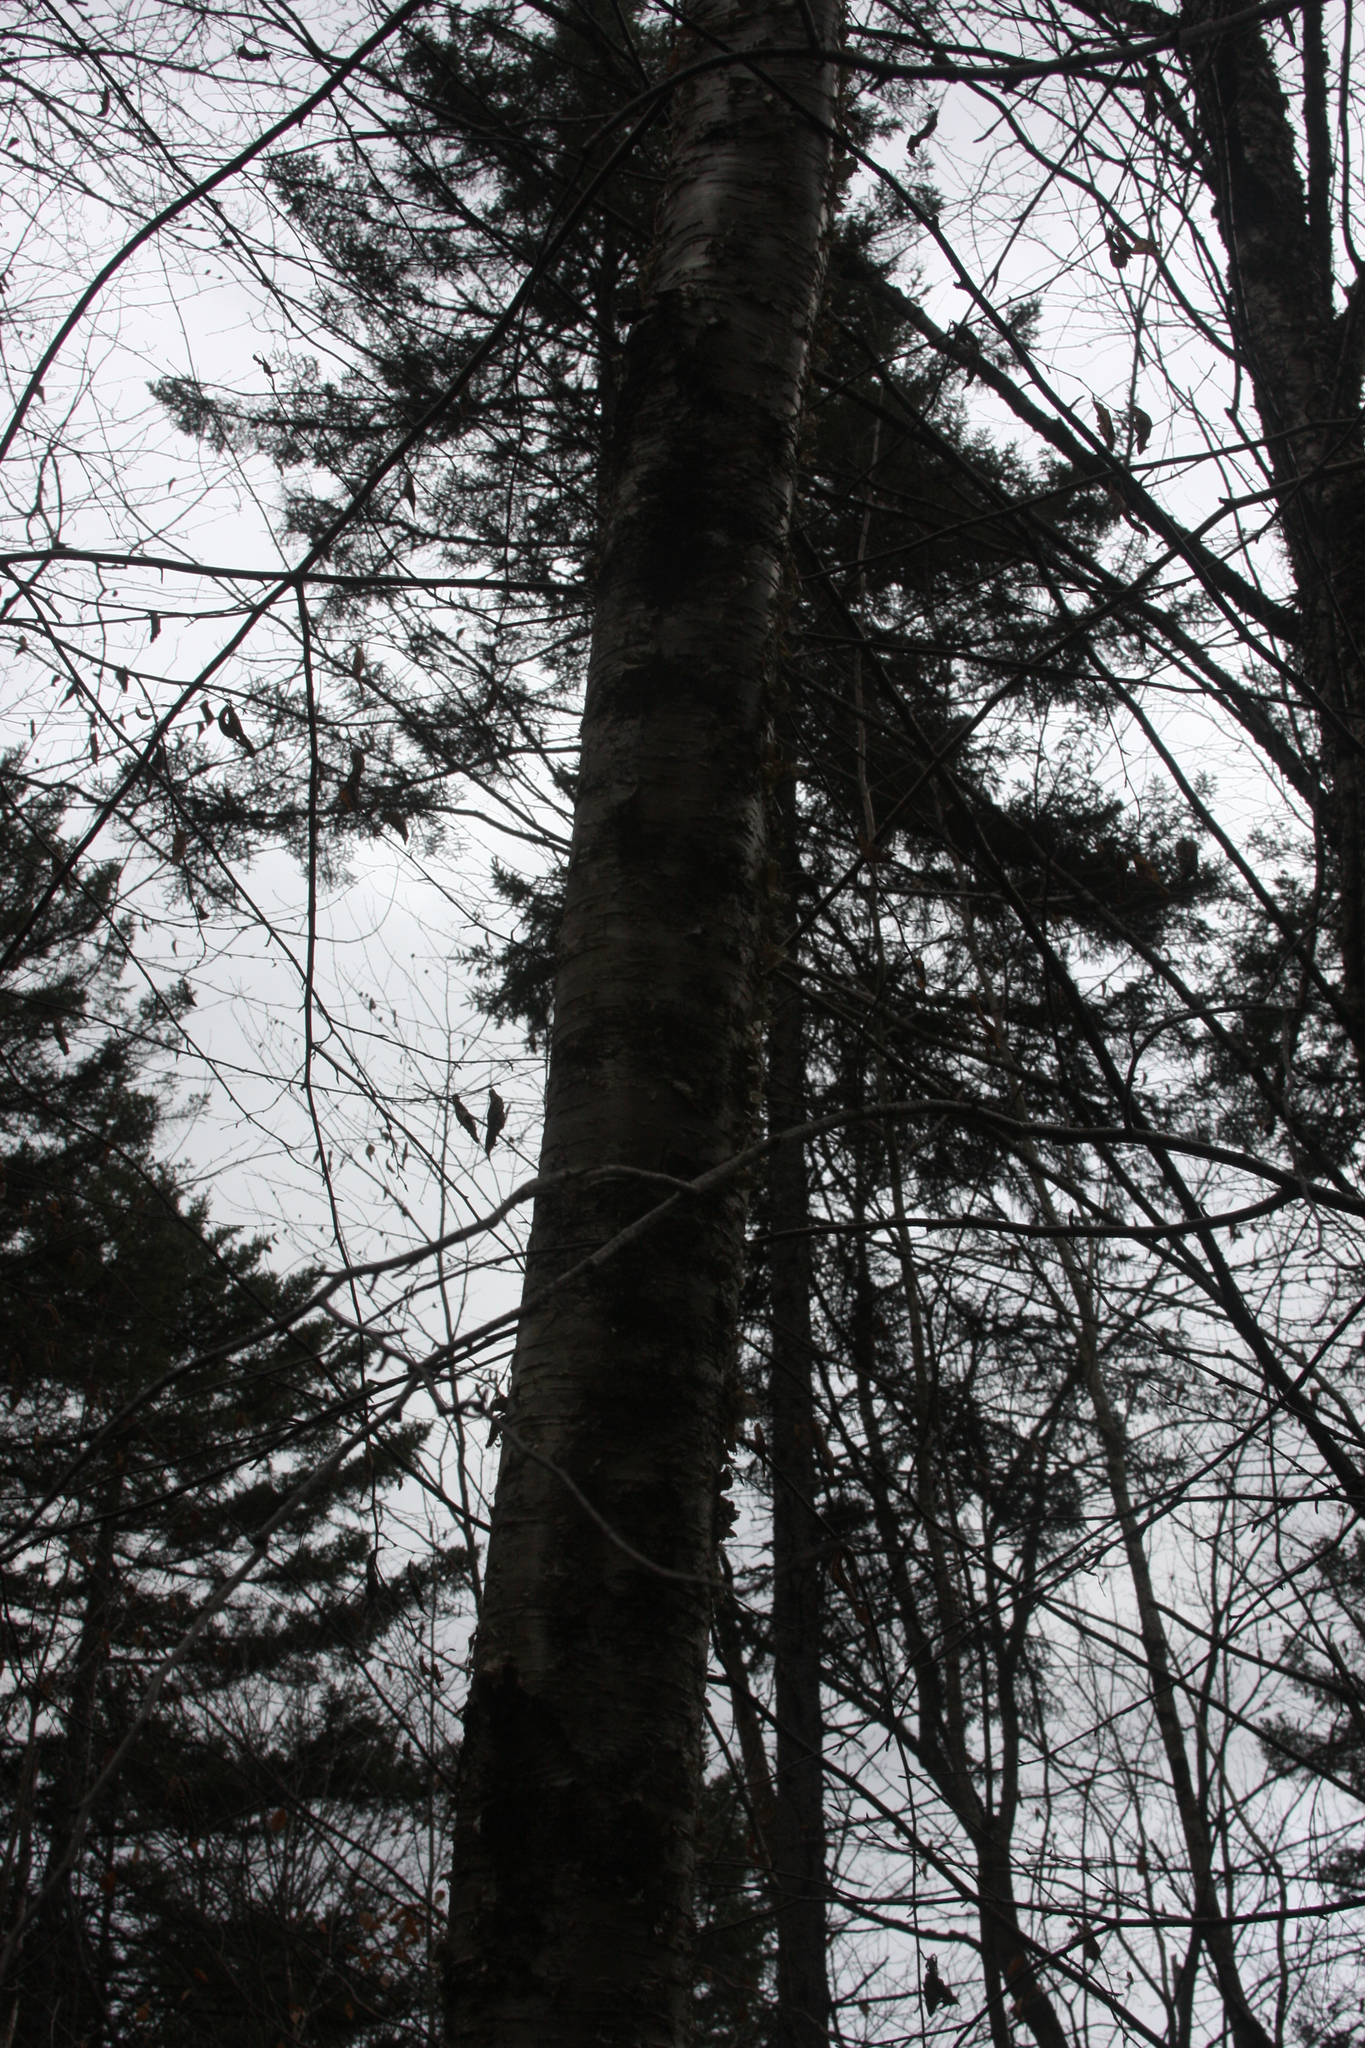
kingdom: Plantae
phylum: Tracheophyta
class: Magnoliopsida
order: Fagales
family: Betulaceae
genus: Betula
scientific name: Betula alleghaniensis
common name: Yellow birch
